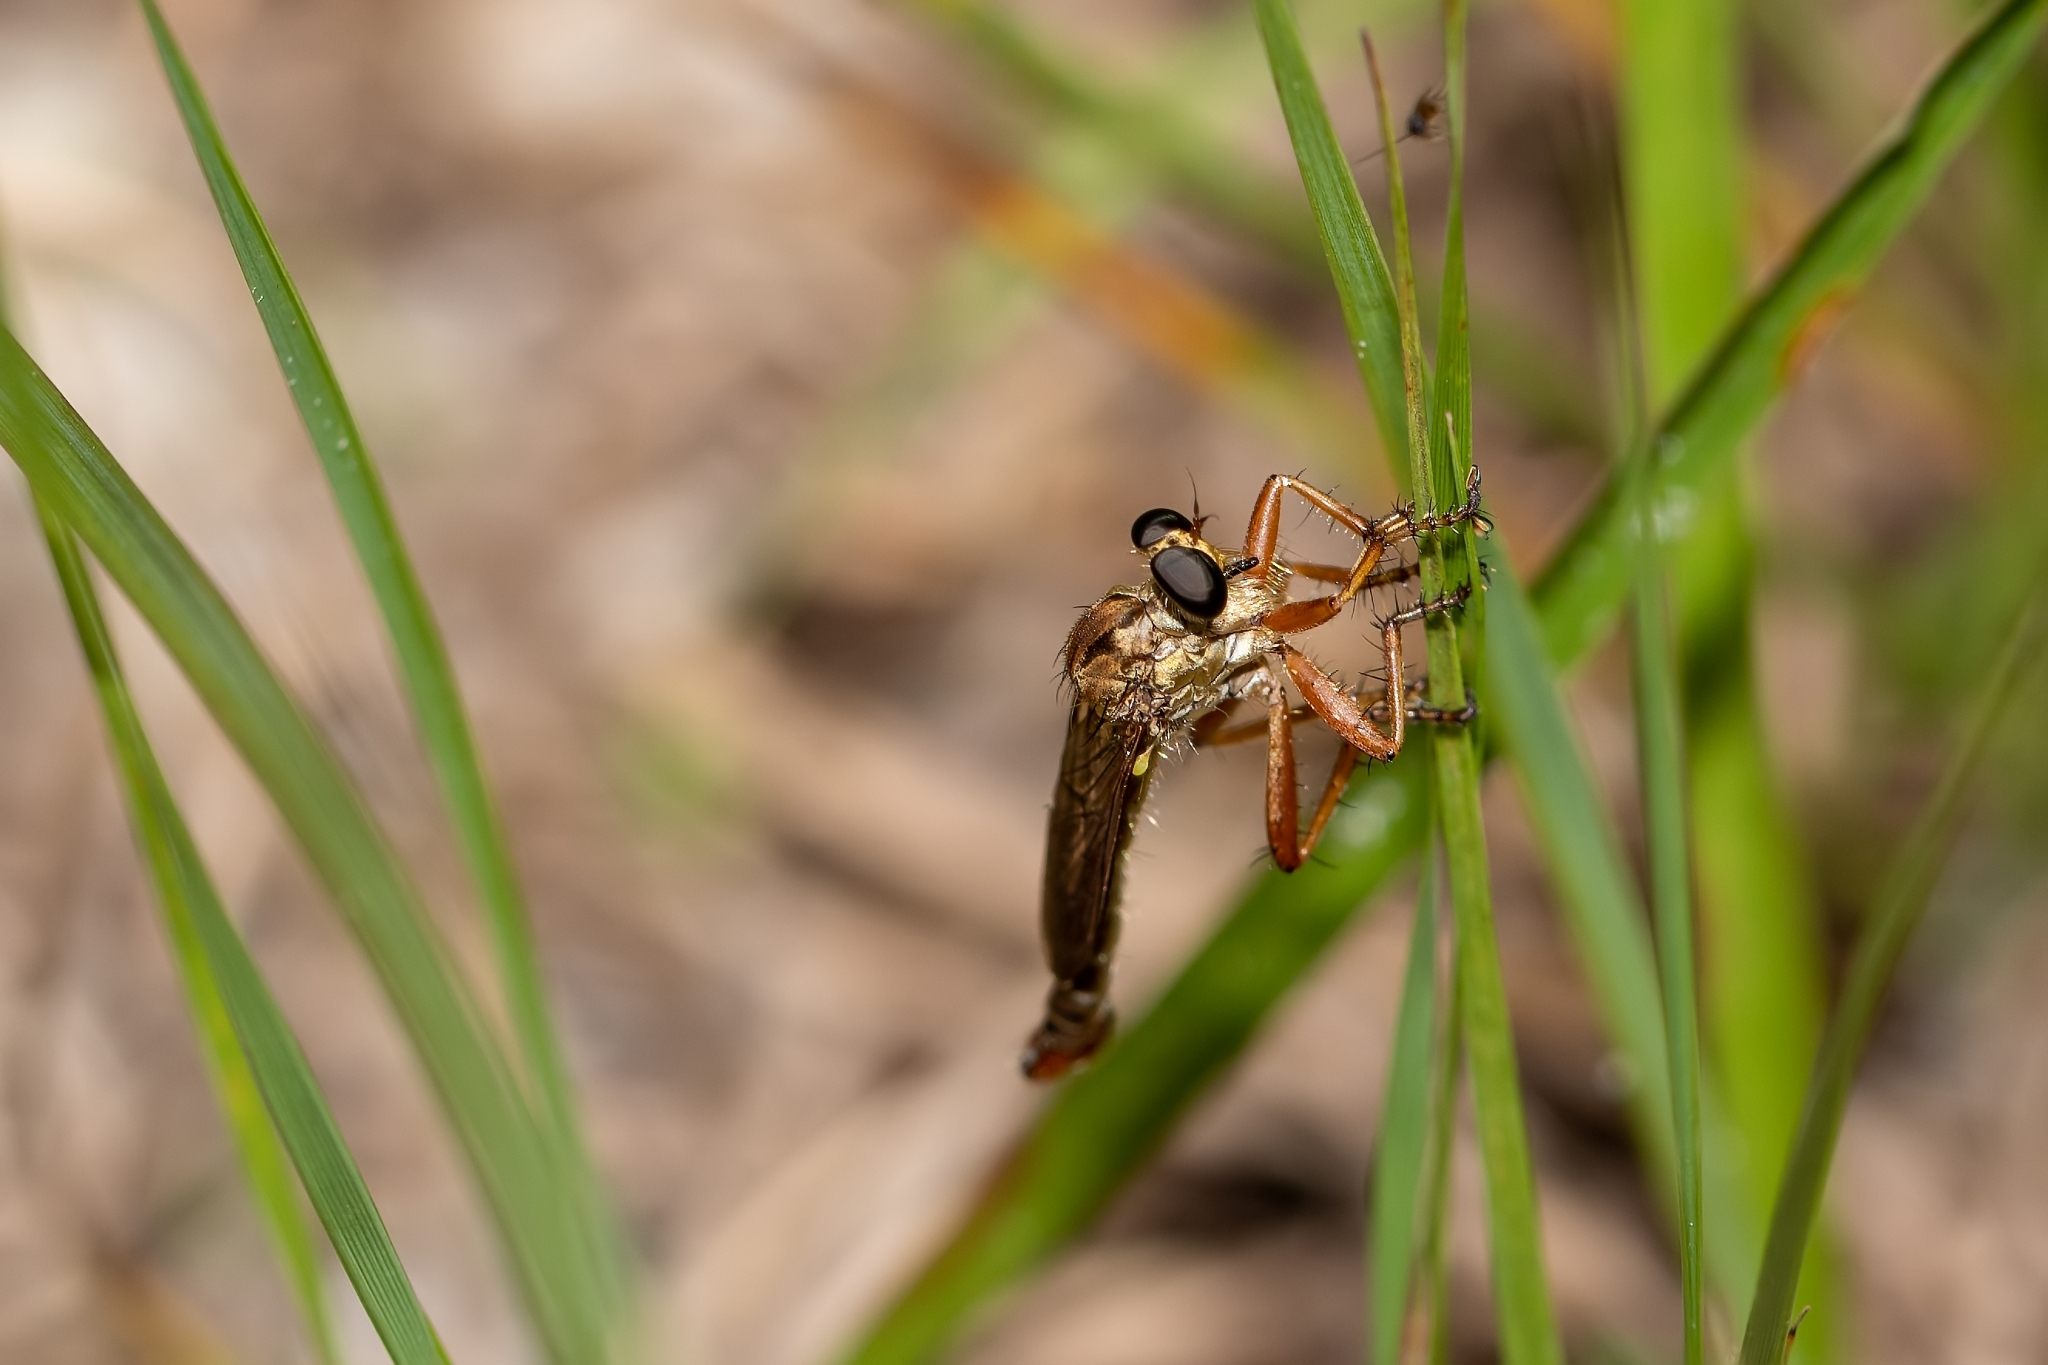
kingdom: Animalia
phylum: Arthropoda
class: Insecta
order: Diptera
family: Asilidae
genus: Polacantha
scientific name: Polacantha gracilis
